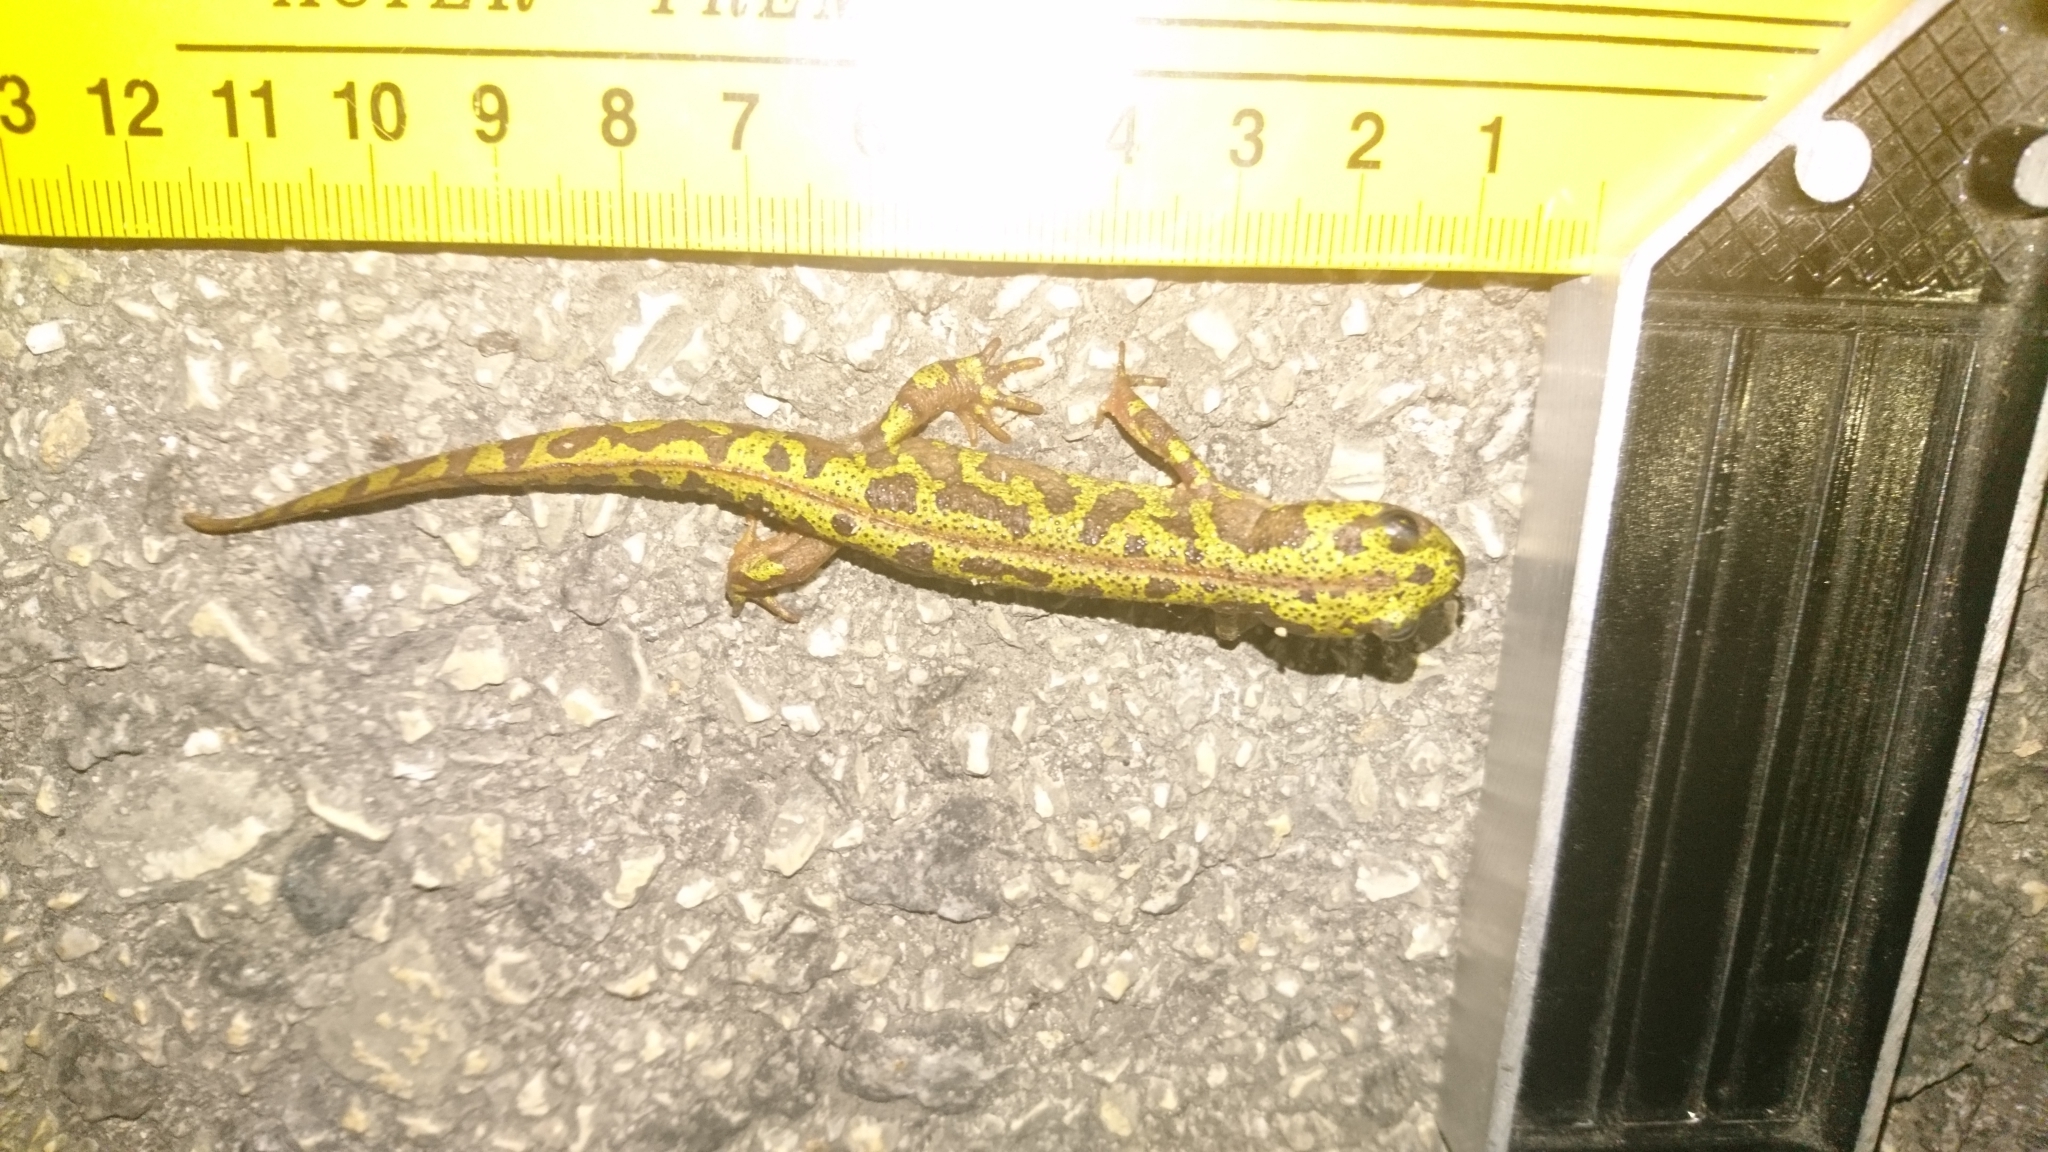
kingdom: Animalia
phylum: Chordata
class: Amphibia
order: Caudata
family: Salamandridae
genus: Triturus
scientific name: Triturus marmoratus
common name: Marbled newt
